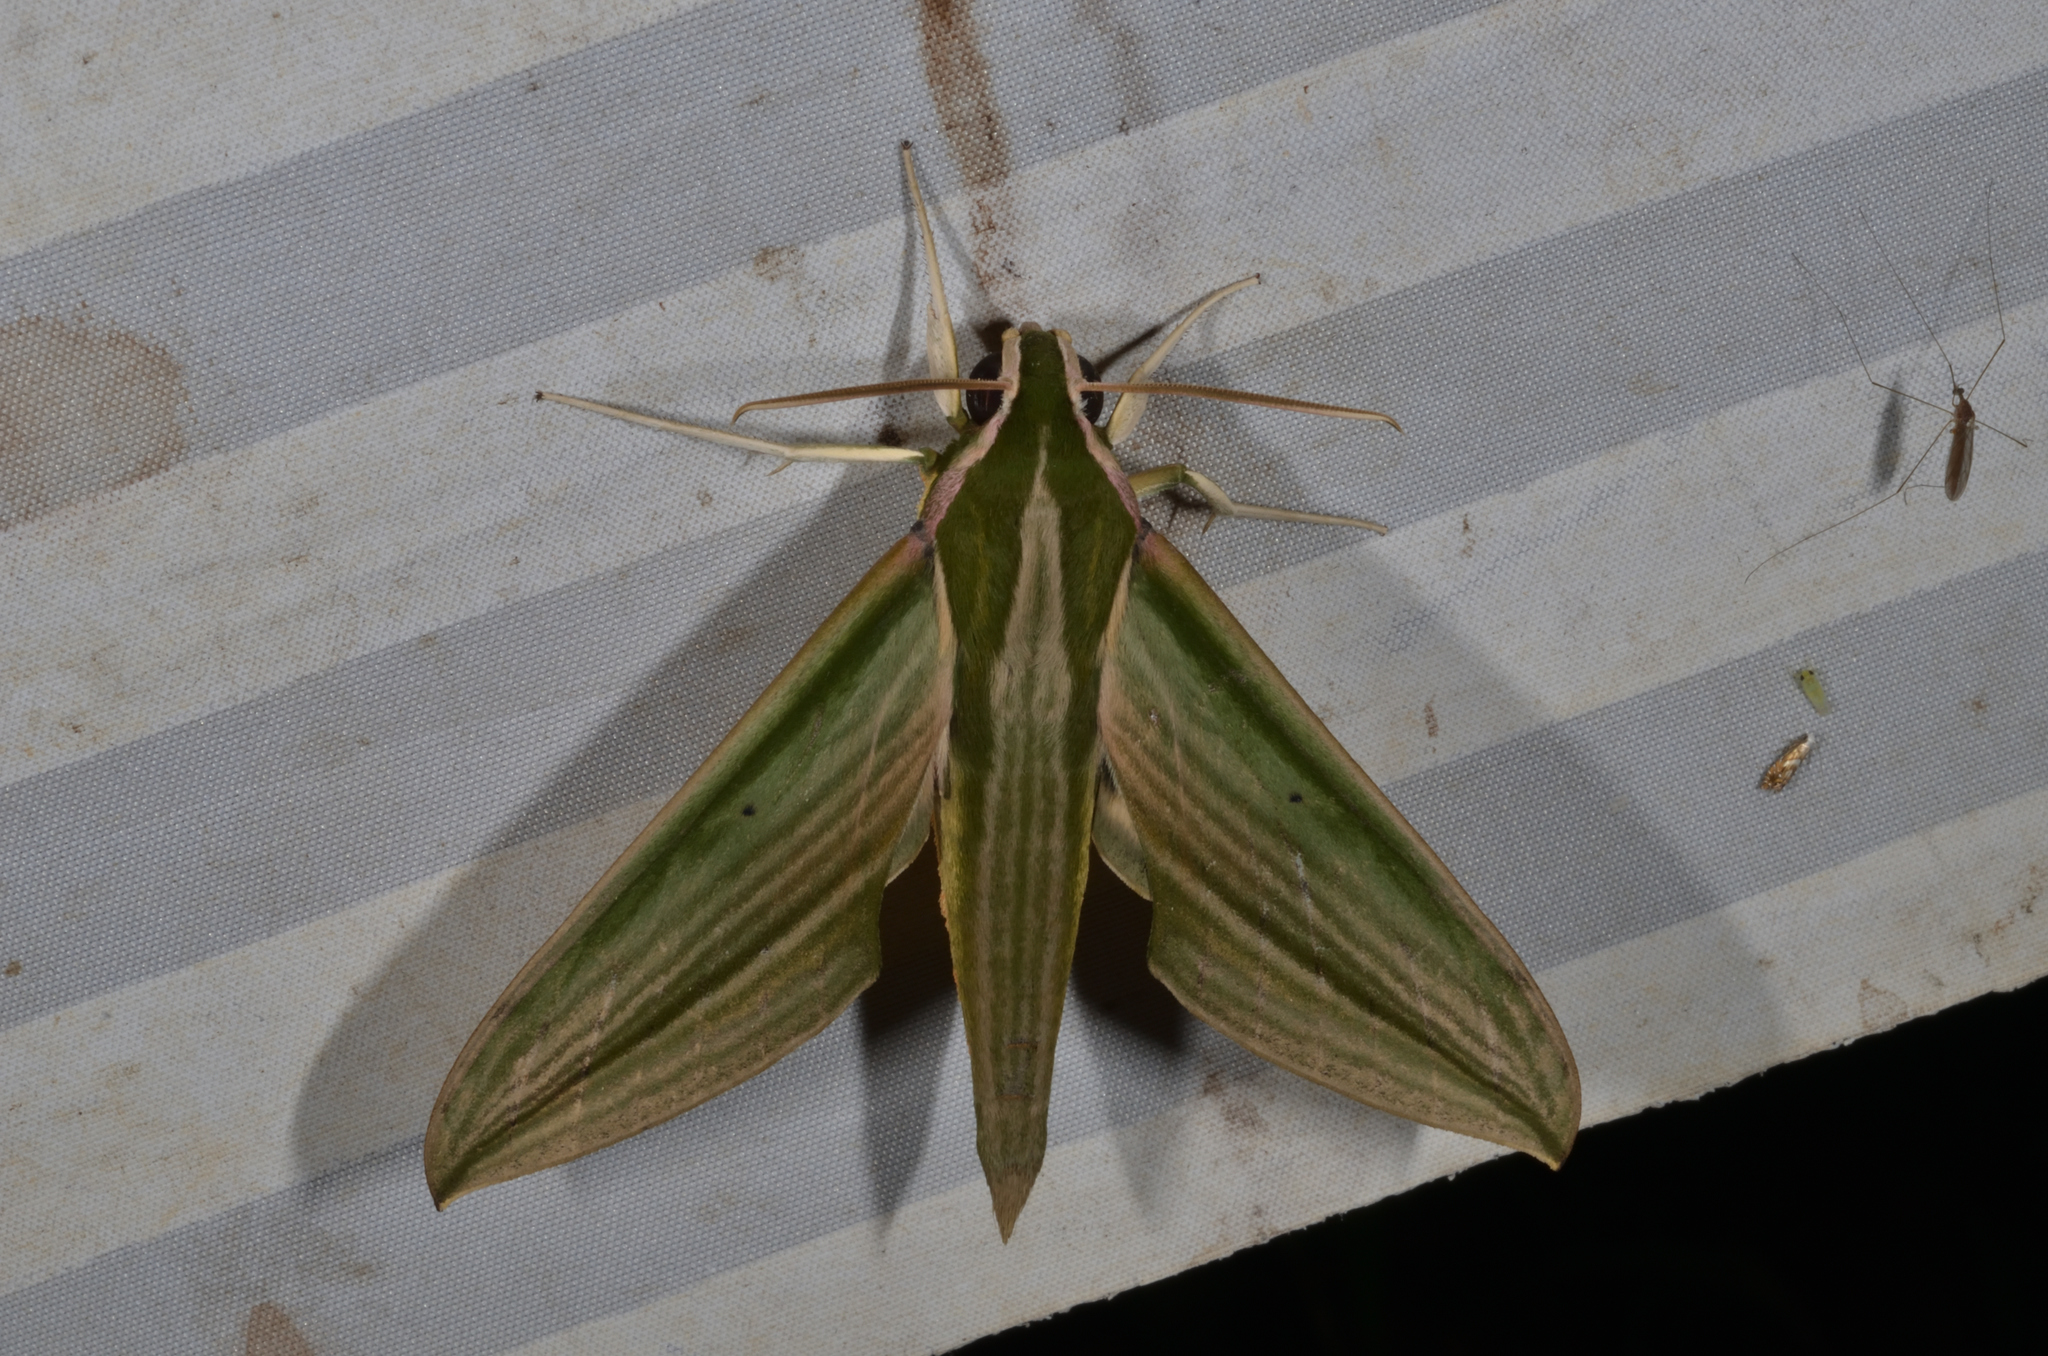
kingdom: Animalia
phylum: Arthropoda
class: Insecta
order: Lepidoptera
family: Sphingidae
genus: Cechetra
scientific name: Cechetra lineosa
